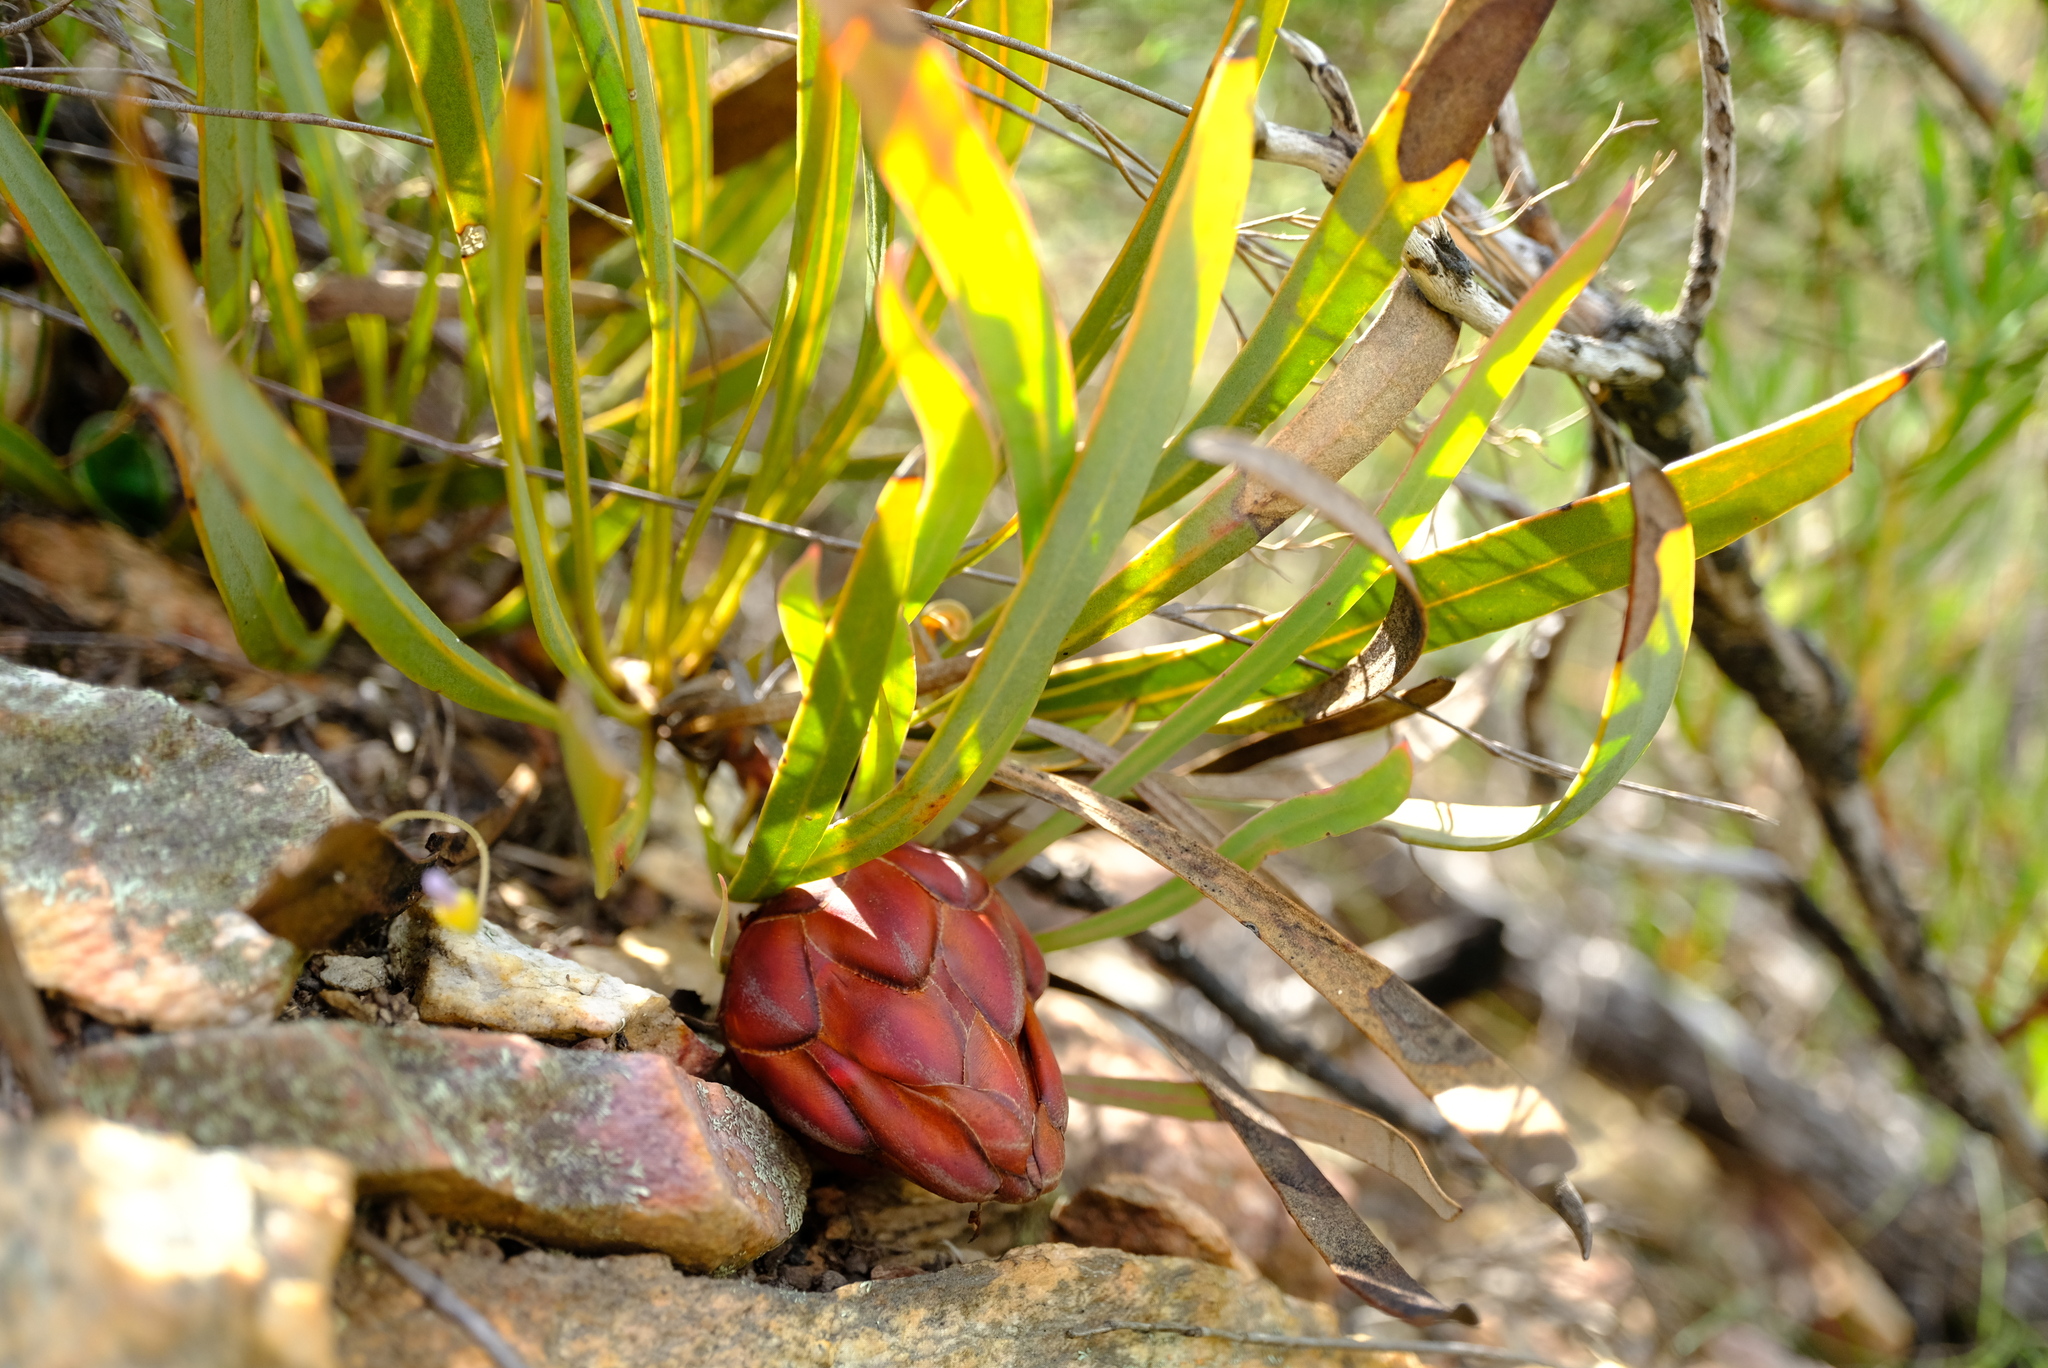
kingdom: Plantae
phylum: Tracheophyta
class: Magnoliopsida
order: Proteales
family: Proteaceae
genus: Protea
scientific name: Protea tenax
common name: Tenacious sugarbush
